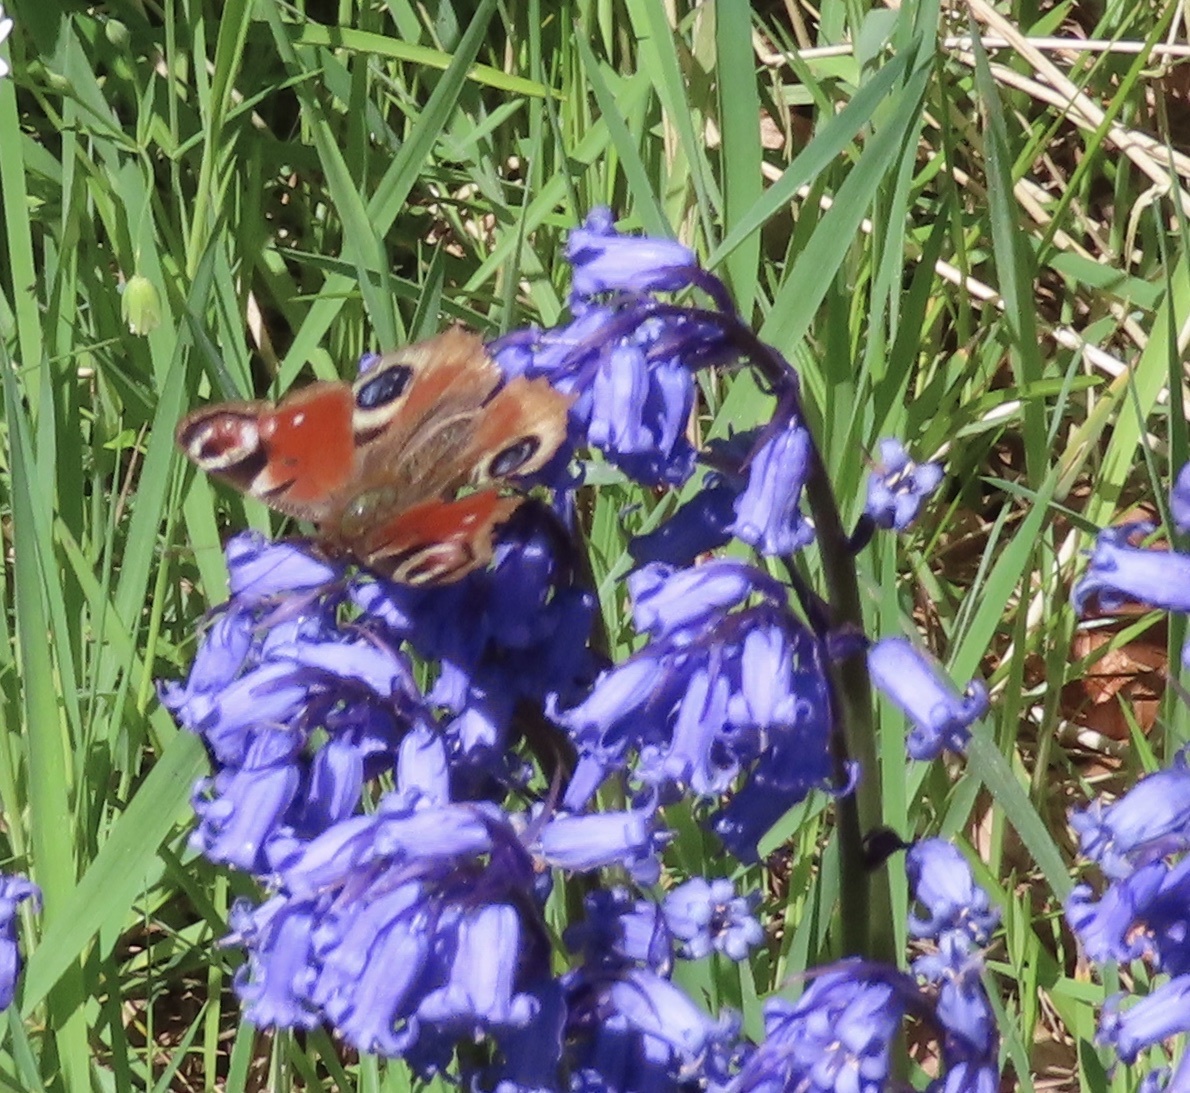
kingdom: Animalia
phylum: Arthropoda
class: Insecta
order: Lepidoptera
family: Nymphalidae
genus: Aglais
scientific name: Aglais io
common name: Peacock
